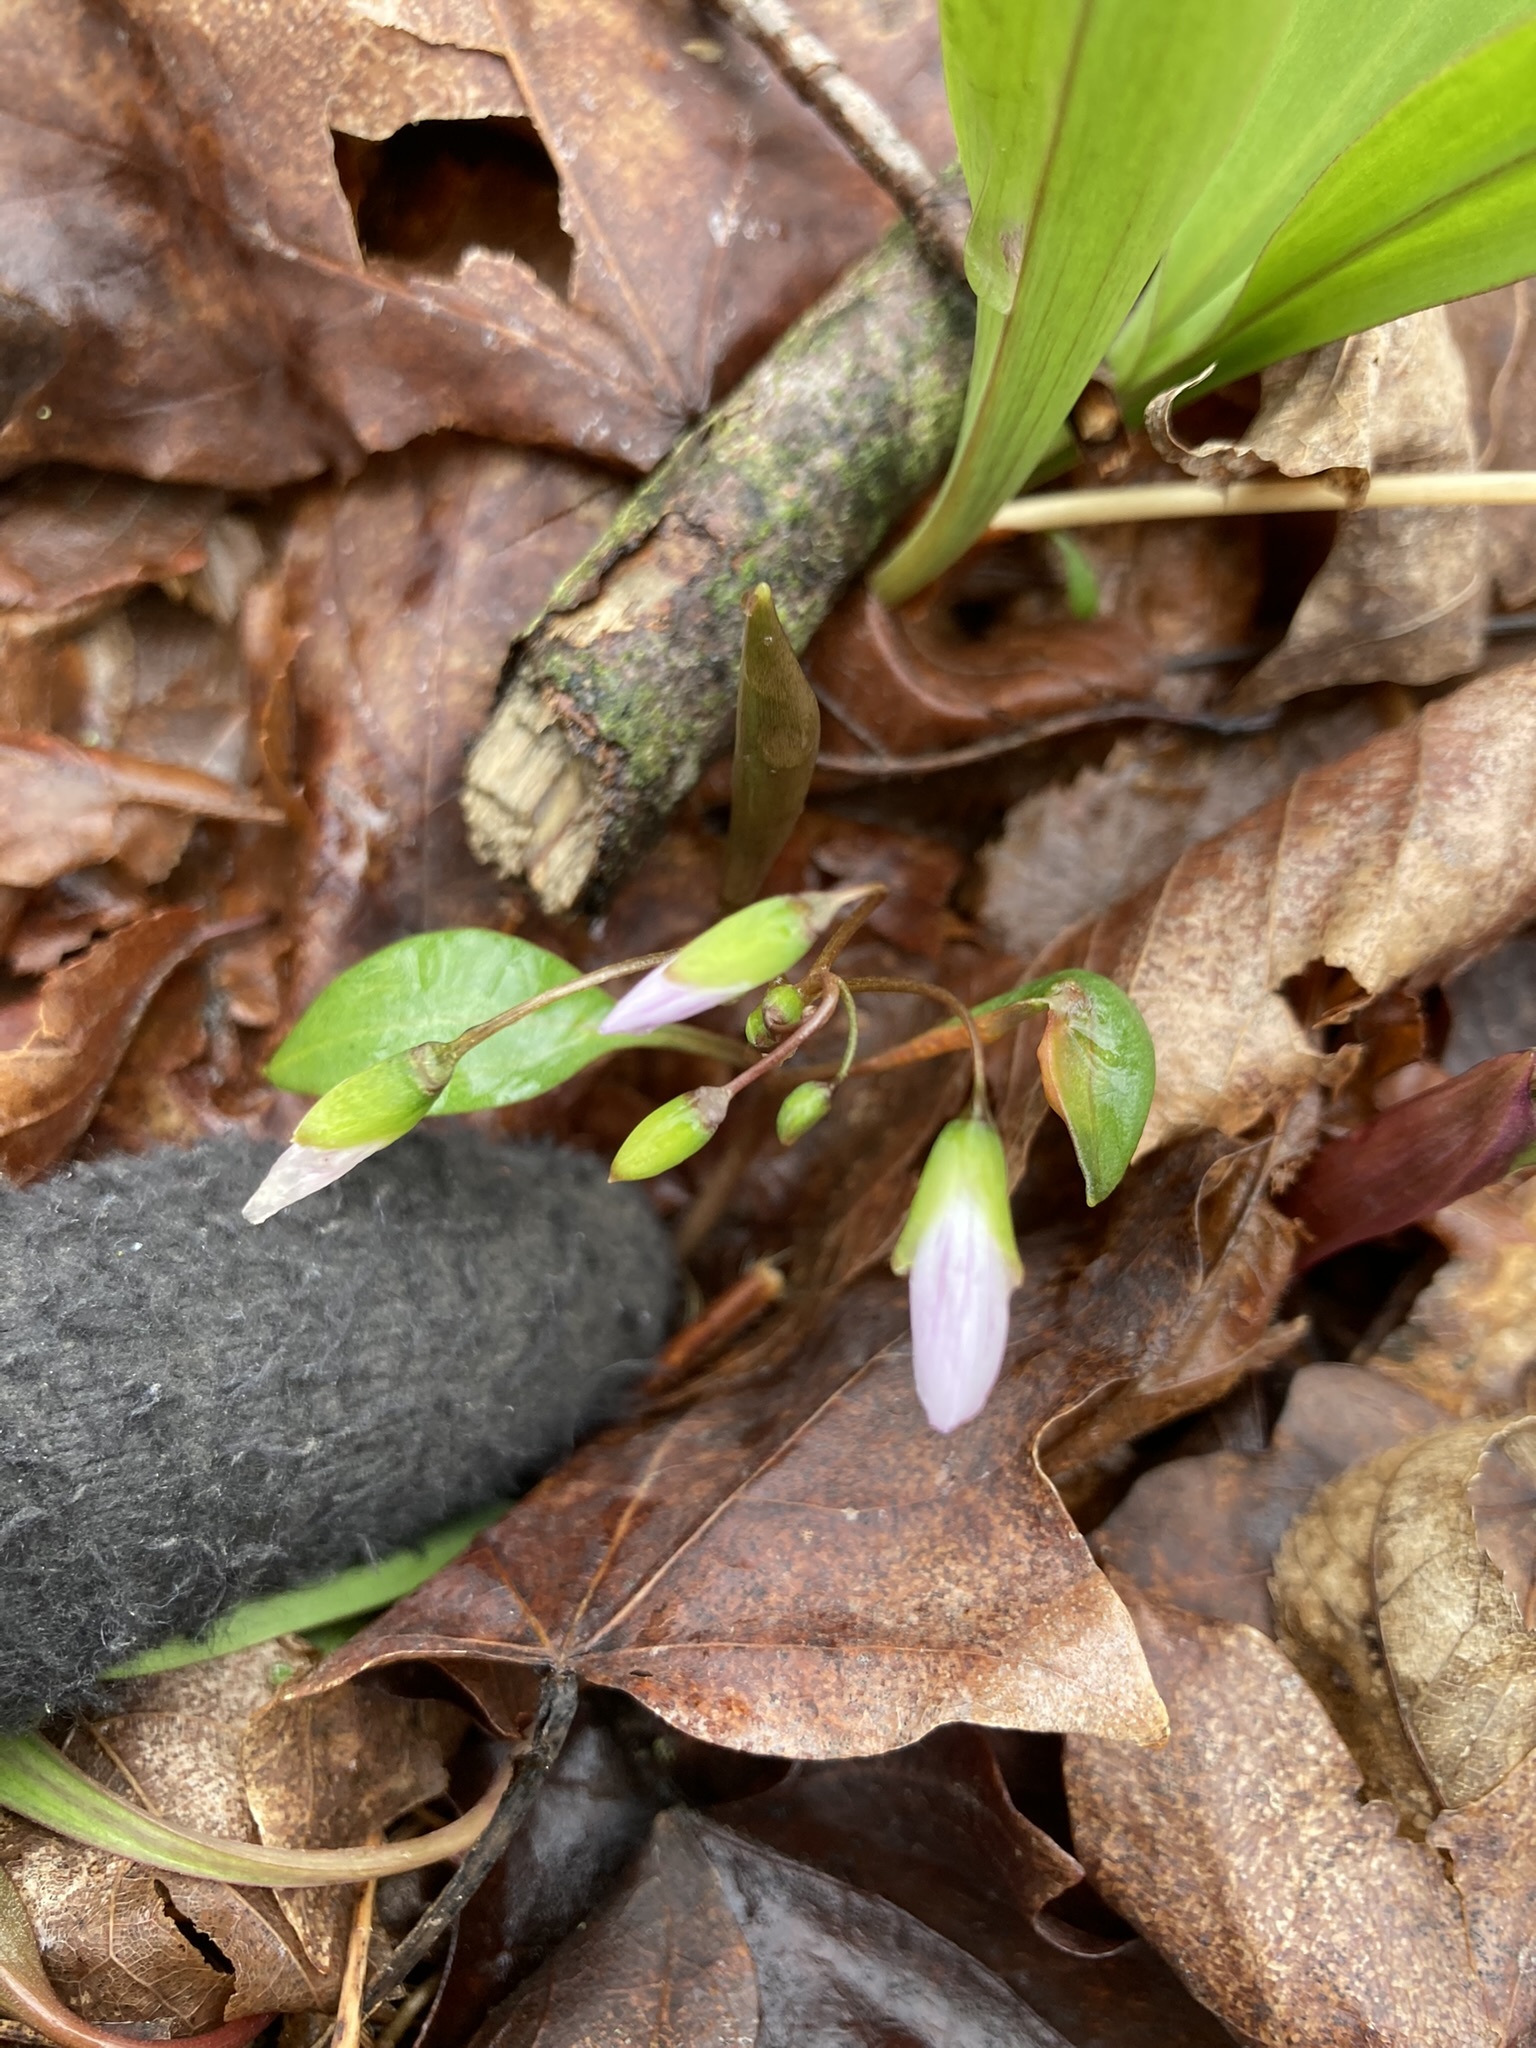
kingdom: Plantae
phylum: Tracheophyta
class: Magnoliopsida
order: Caryophyllales
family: Montiaceae
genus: Claytonia
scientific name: Claytonia caroliniana
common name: Carolina spring beauty
